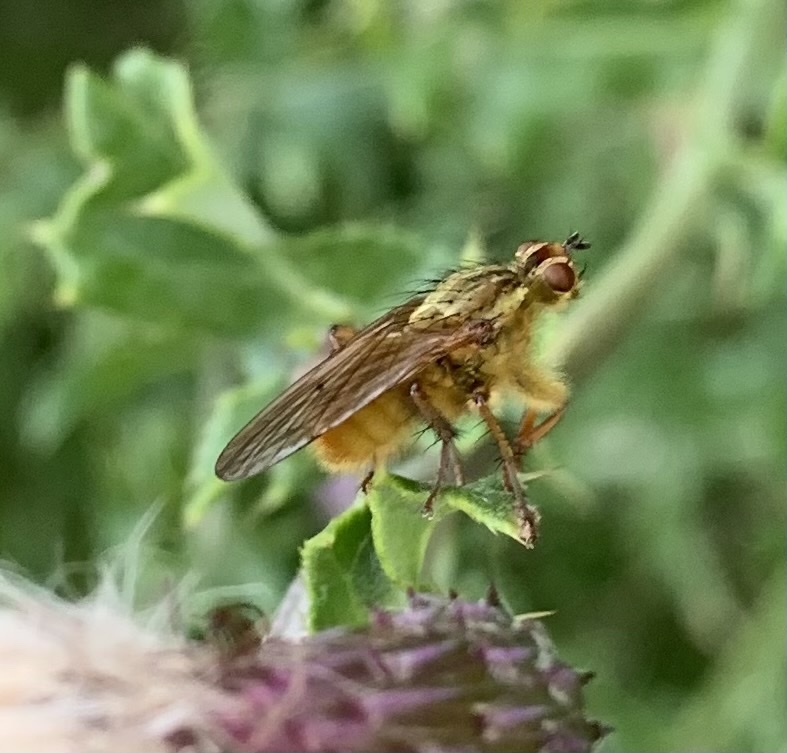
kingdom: Animalia
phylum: Arthropoda
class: Insecta
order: Diptera
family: Scathophagidae
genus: Scathophaga
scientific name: Scathophaga stercoraria
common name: Yellow dung fly
